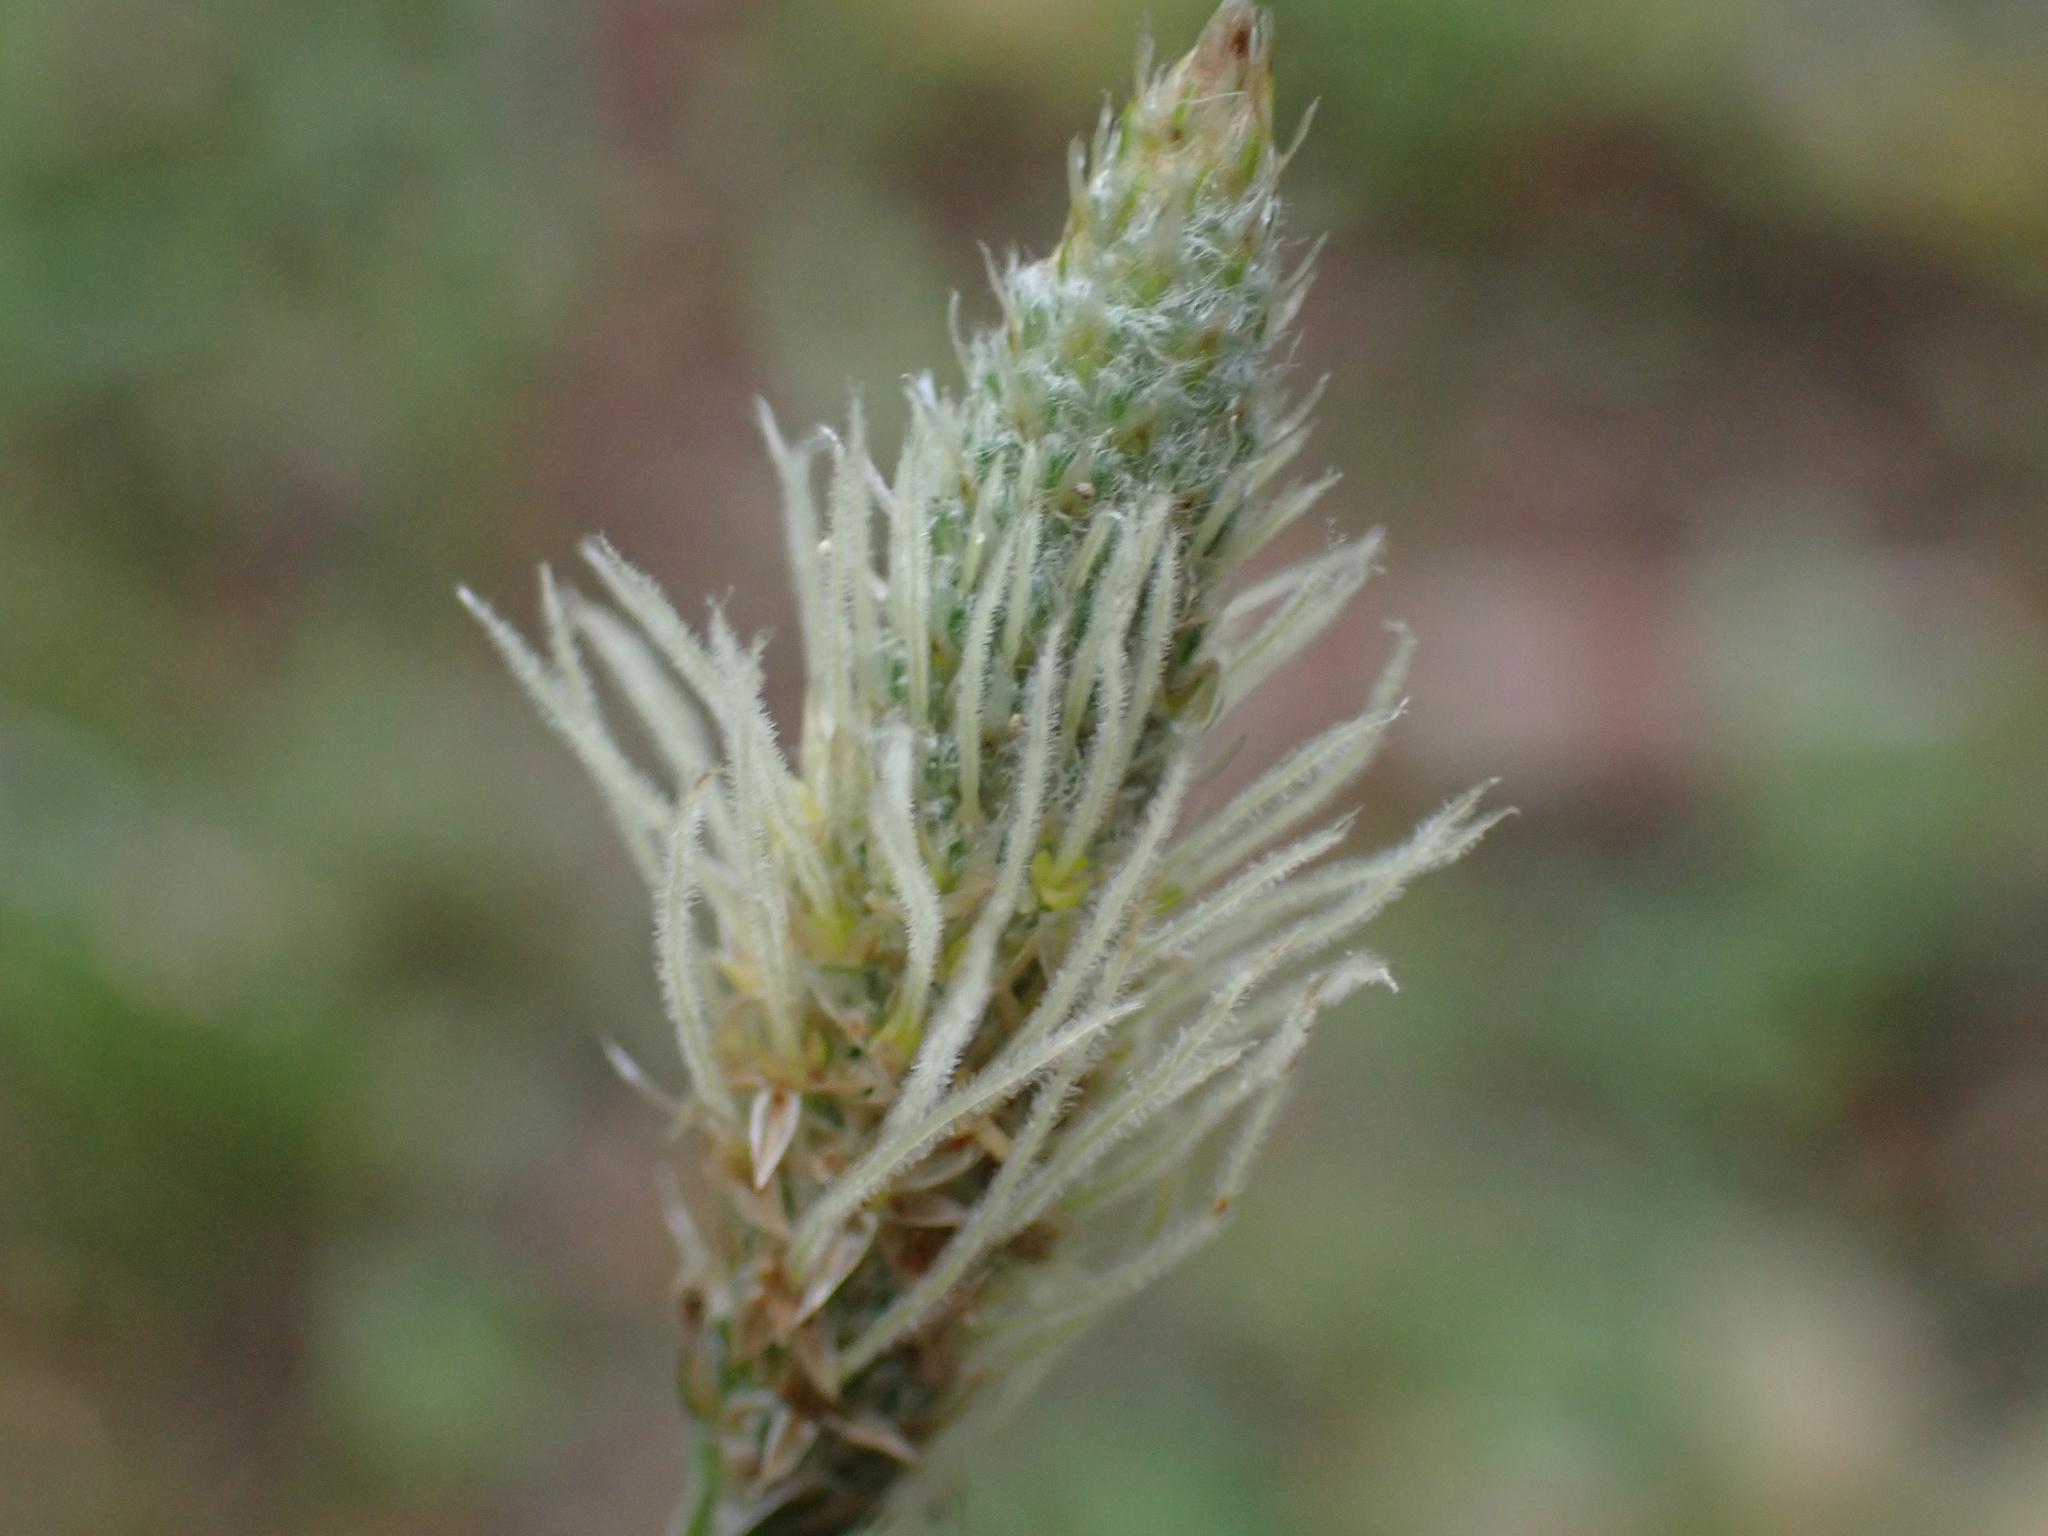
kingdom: Plantae
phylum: Tracheophyta
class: Magnoliopsida
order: Lamiales
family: Plantaginaceae
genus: Plantago
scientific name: Plantago lanceolata
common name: Ribwort plantain
